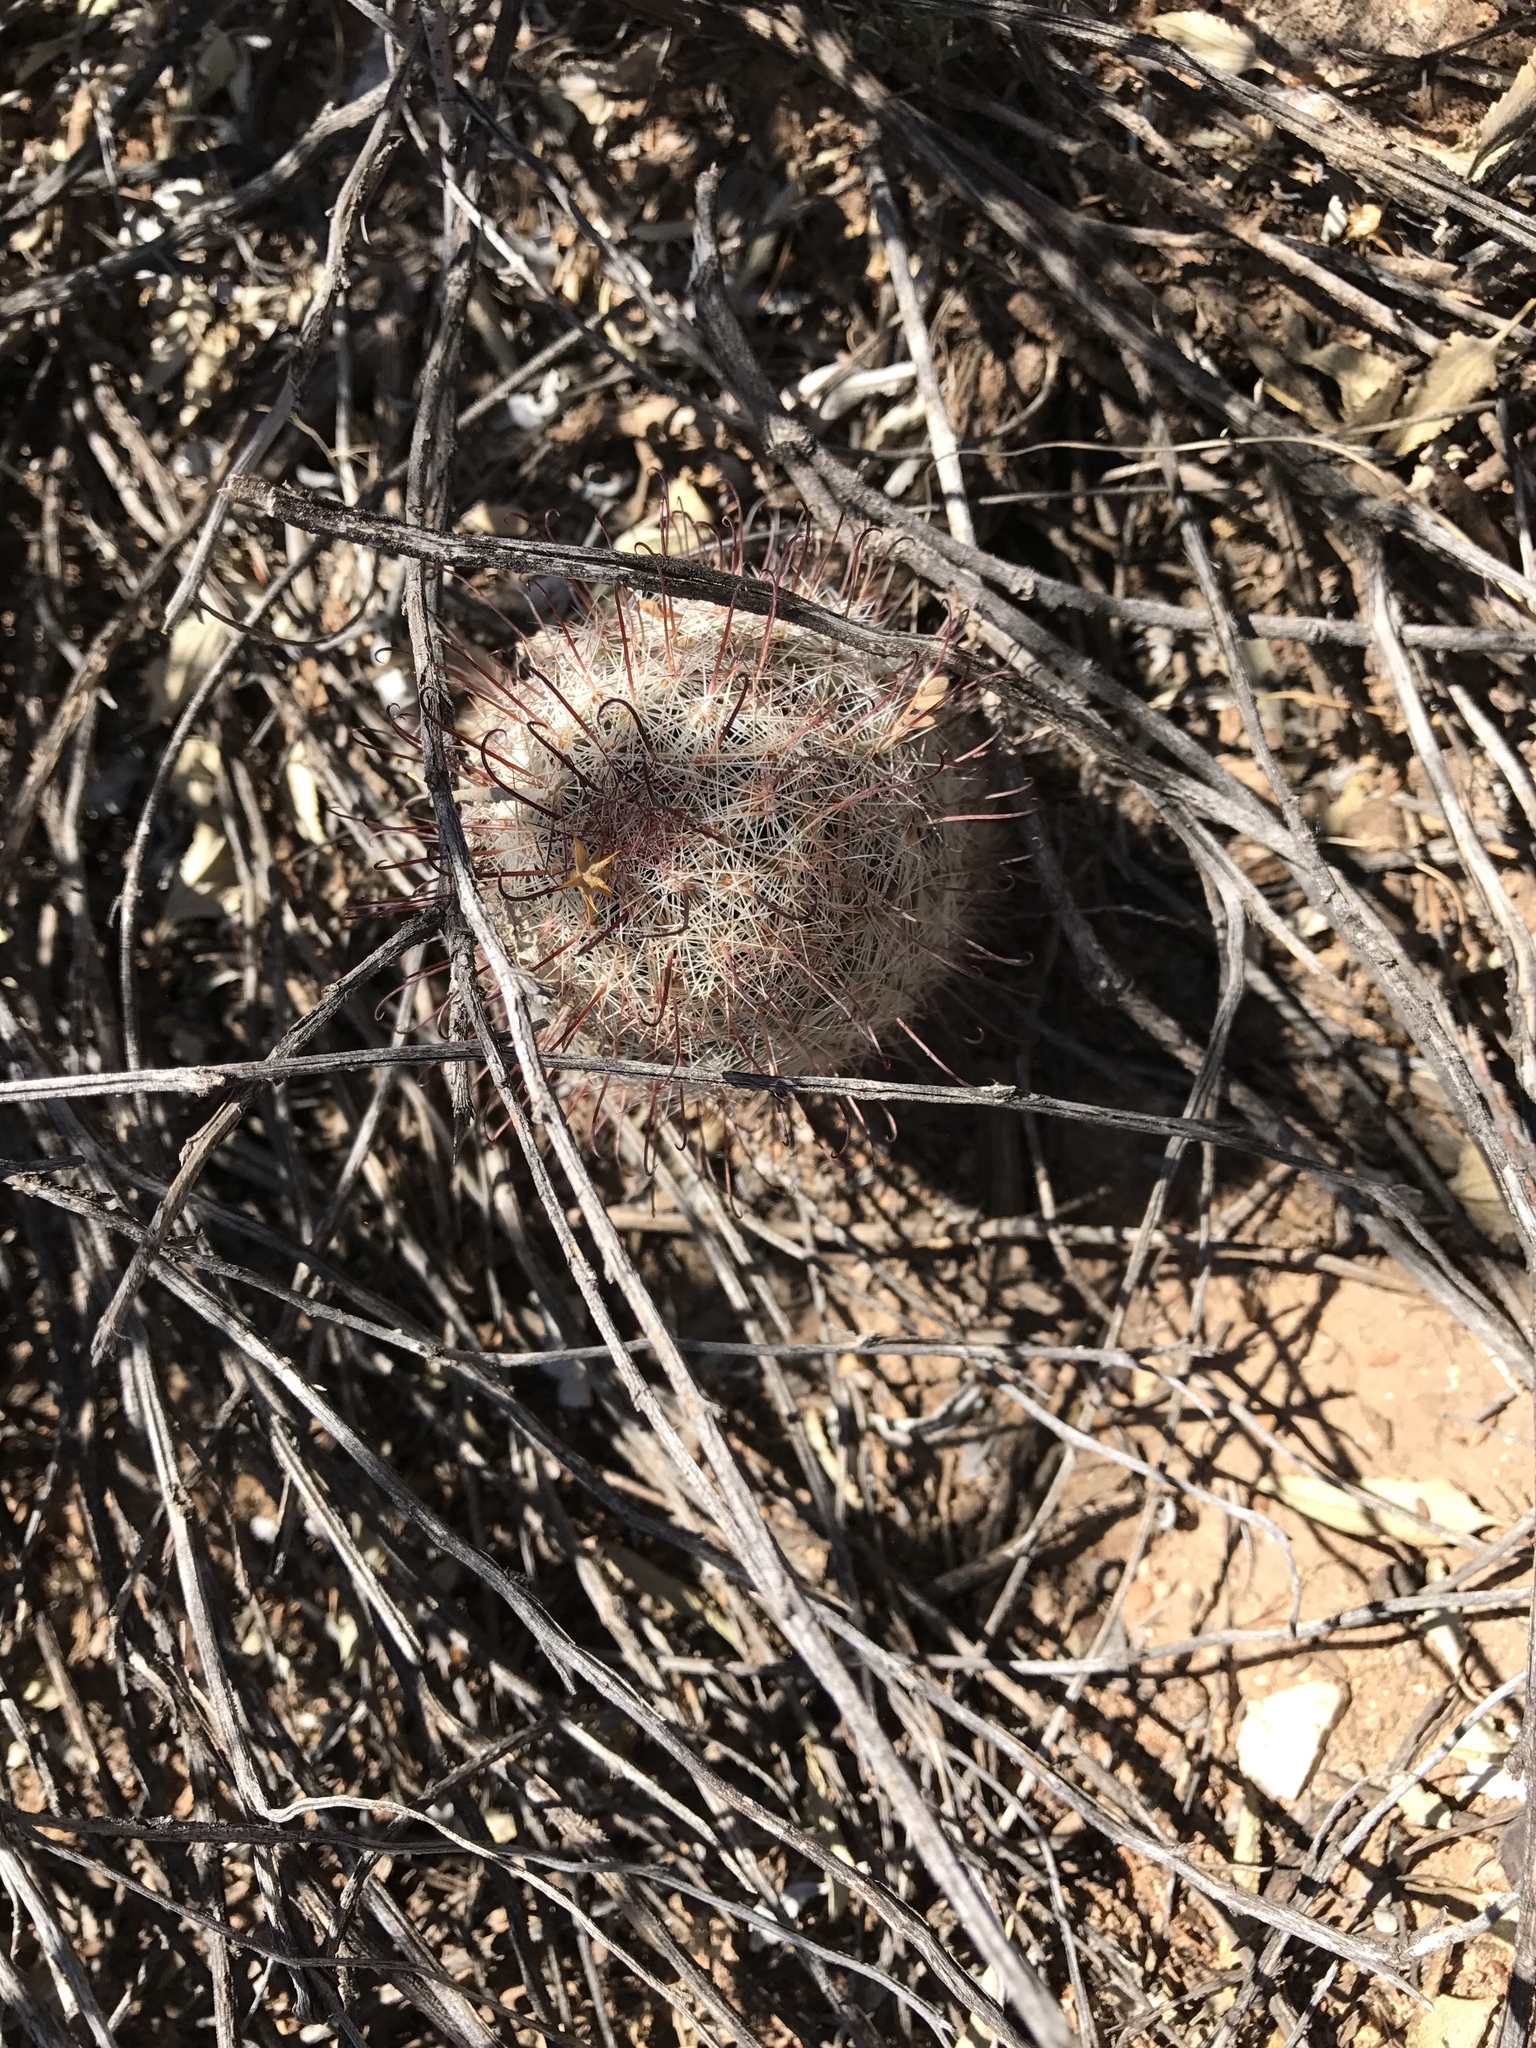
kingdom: Plantae
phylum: Tracheophyta
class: Magnoliopsida
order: Caryophyllales
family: Cactaceae
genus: Cochemiea
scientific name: Cochemiea grahamii
